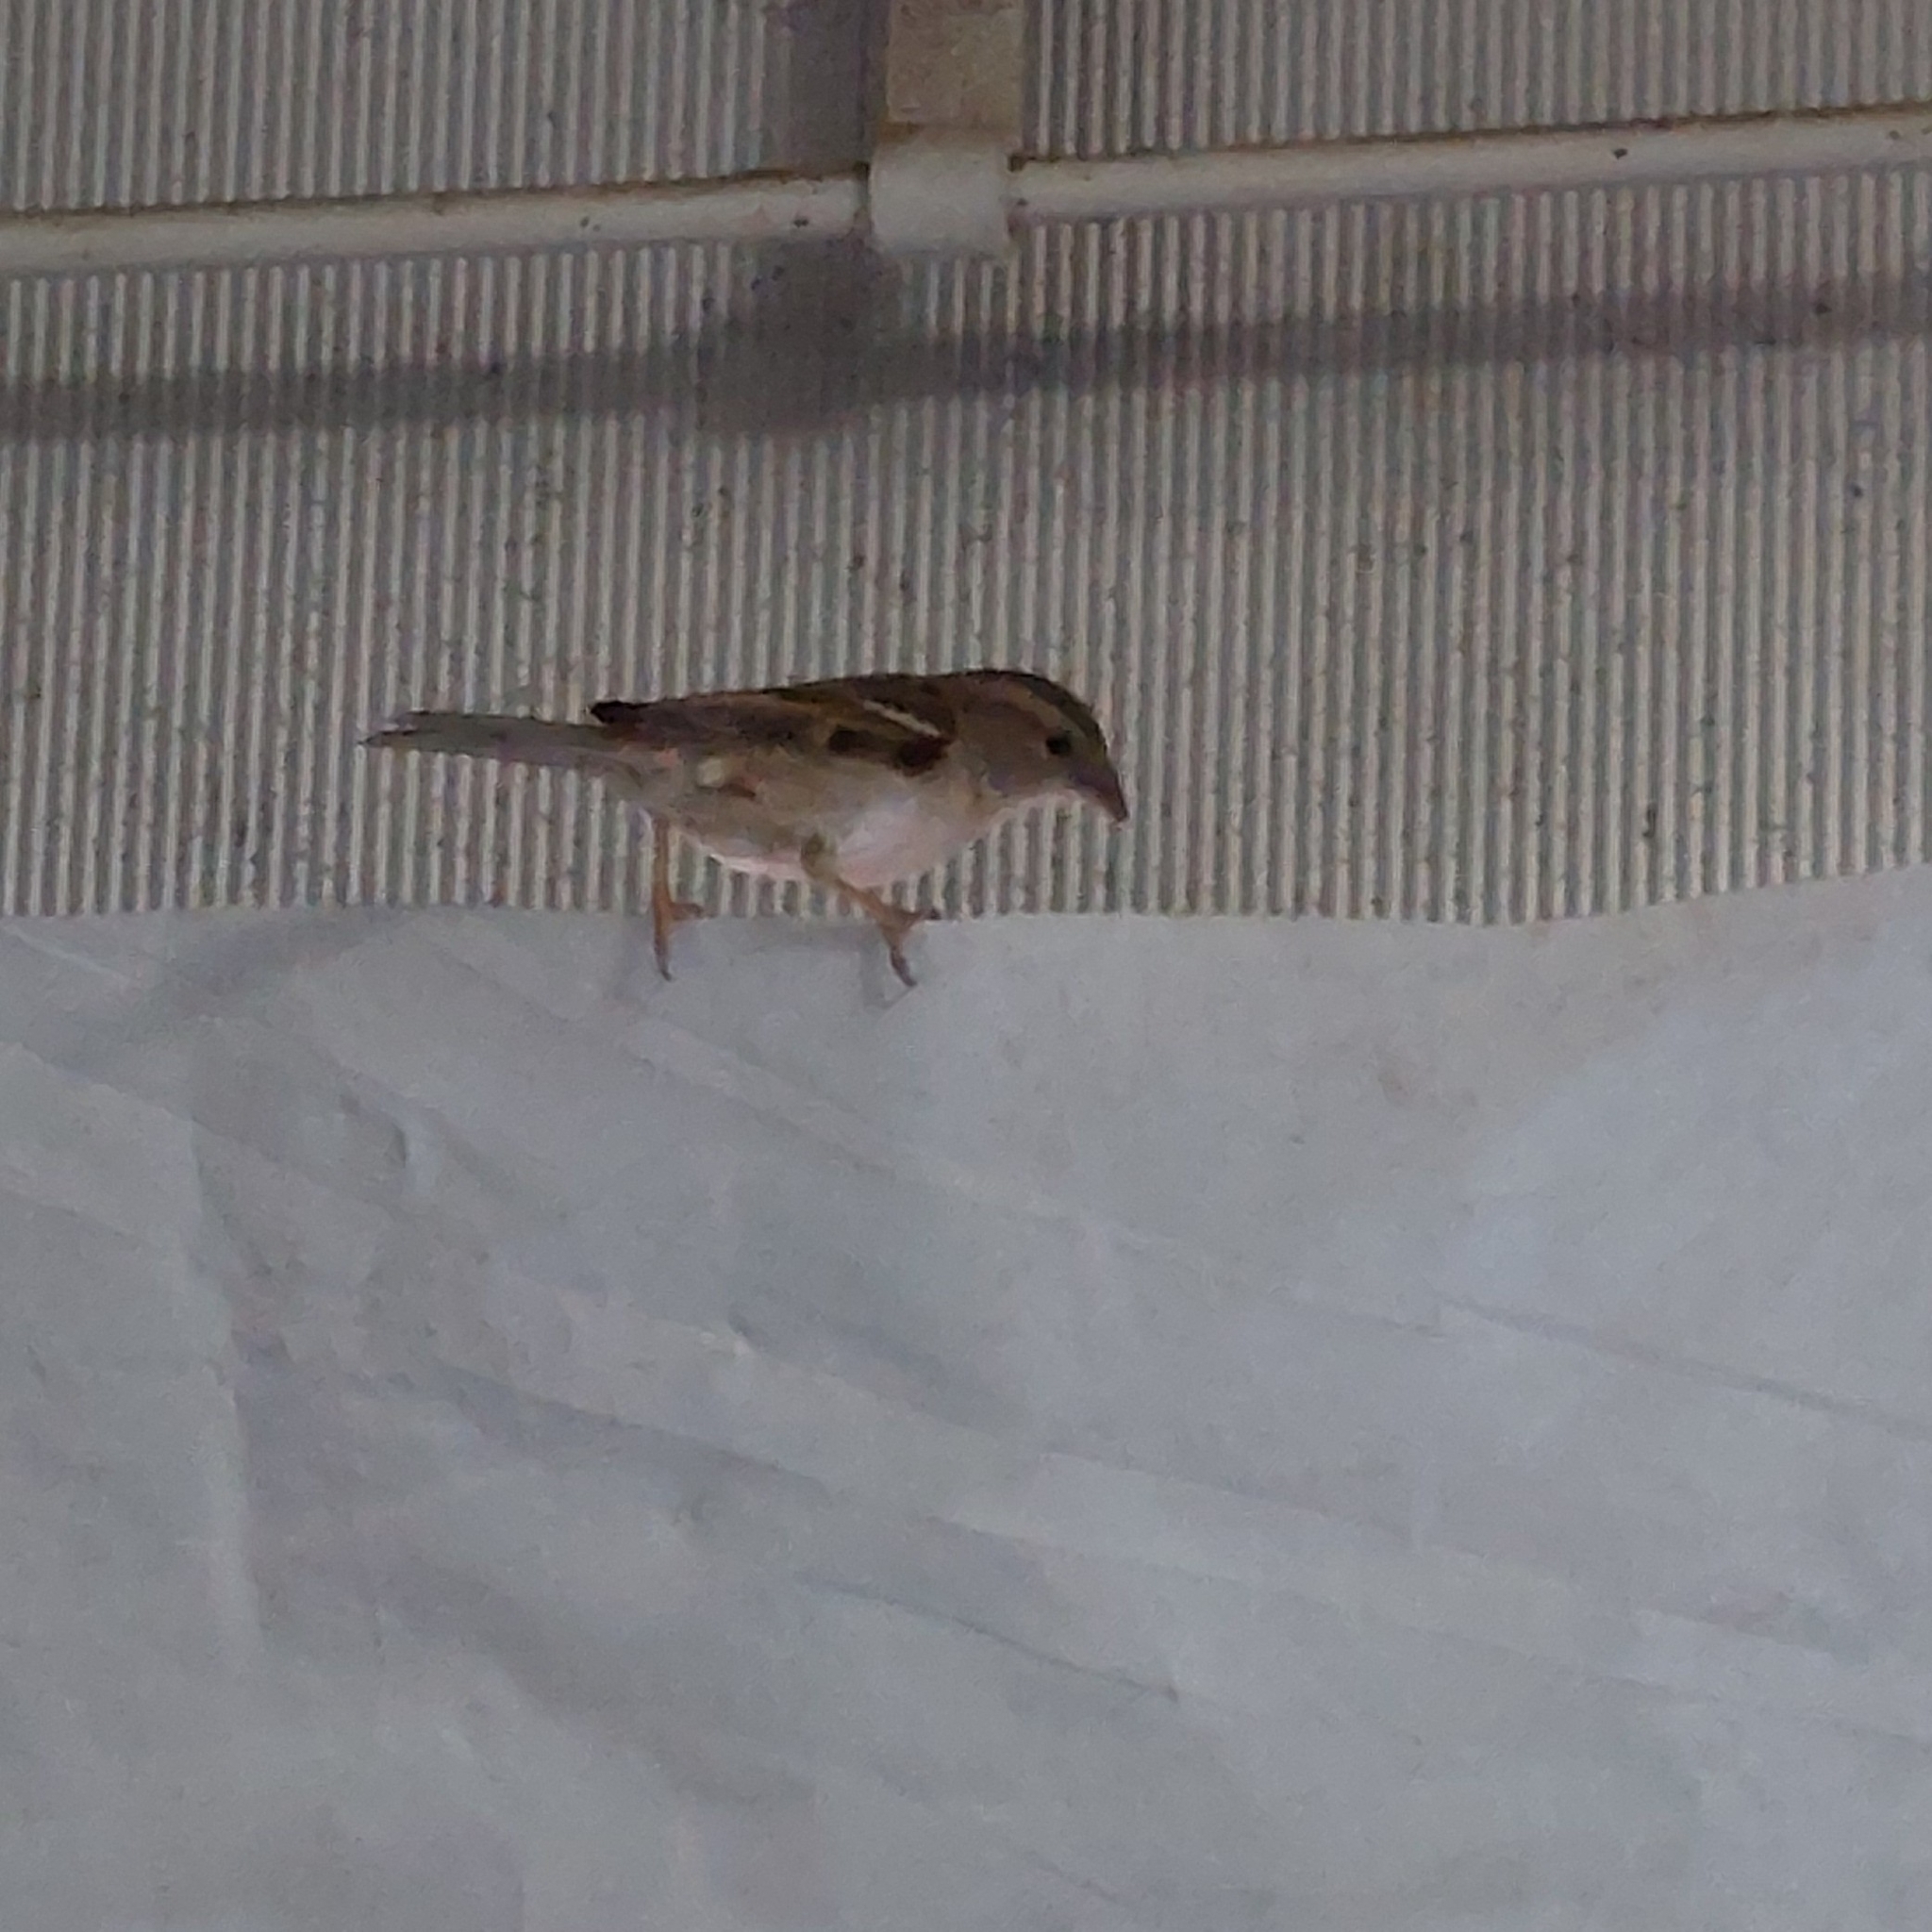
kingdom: Animalia
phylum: Chordata
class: Aves
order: Passeriformes
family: Passeridae
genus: Passer
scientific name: Passer domesticus
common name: House sparrow
